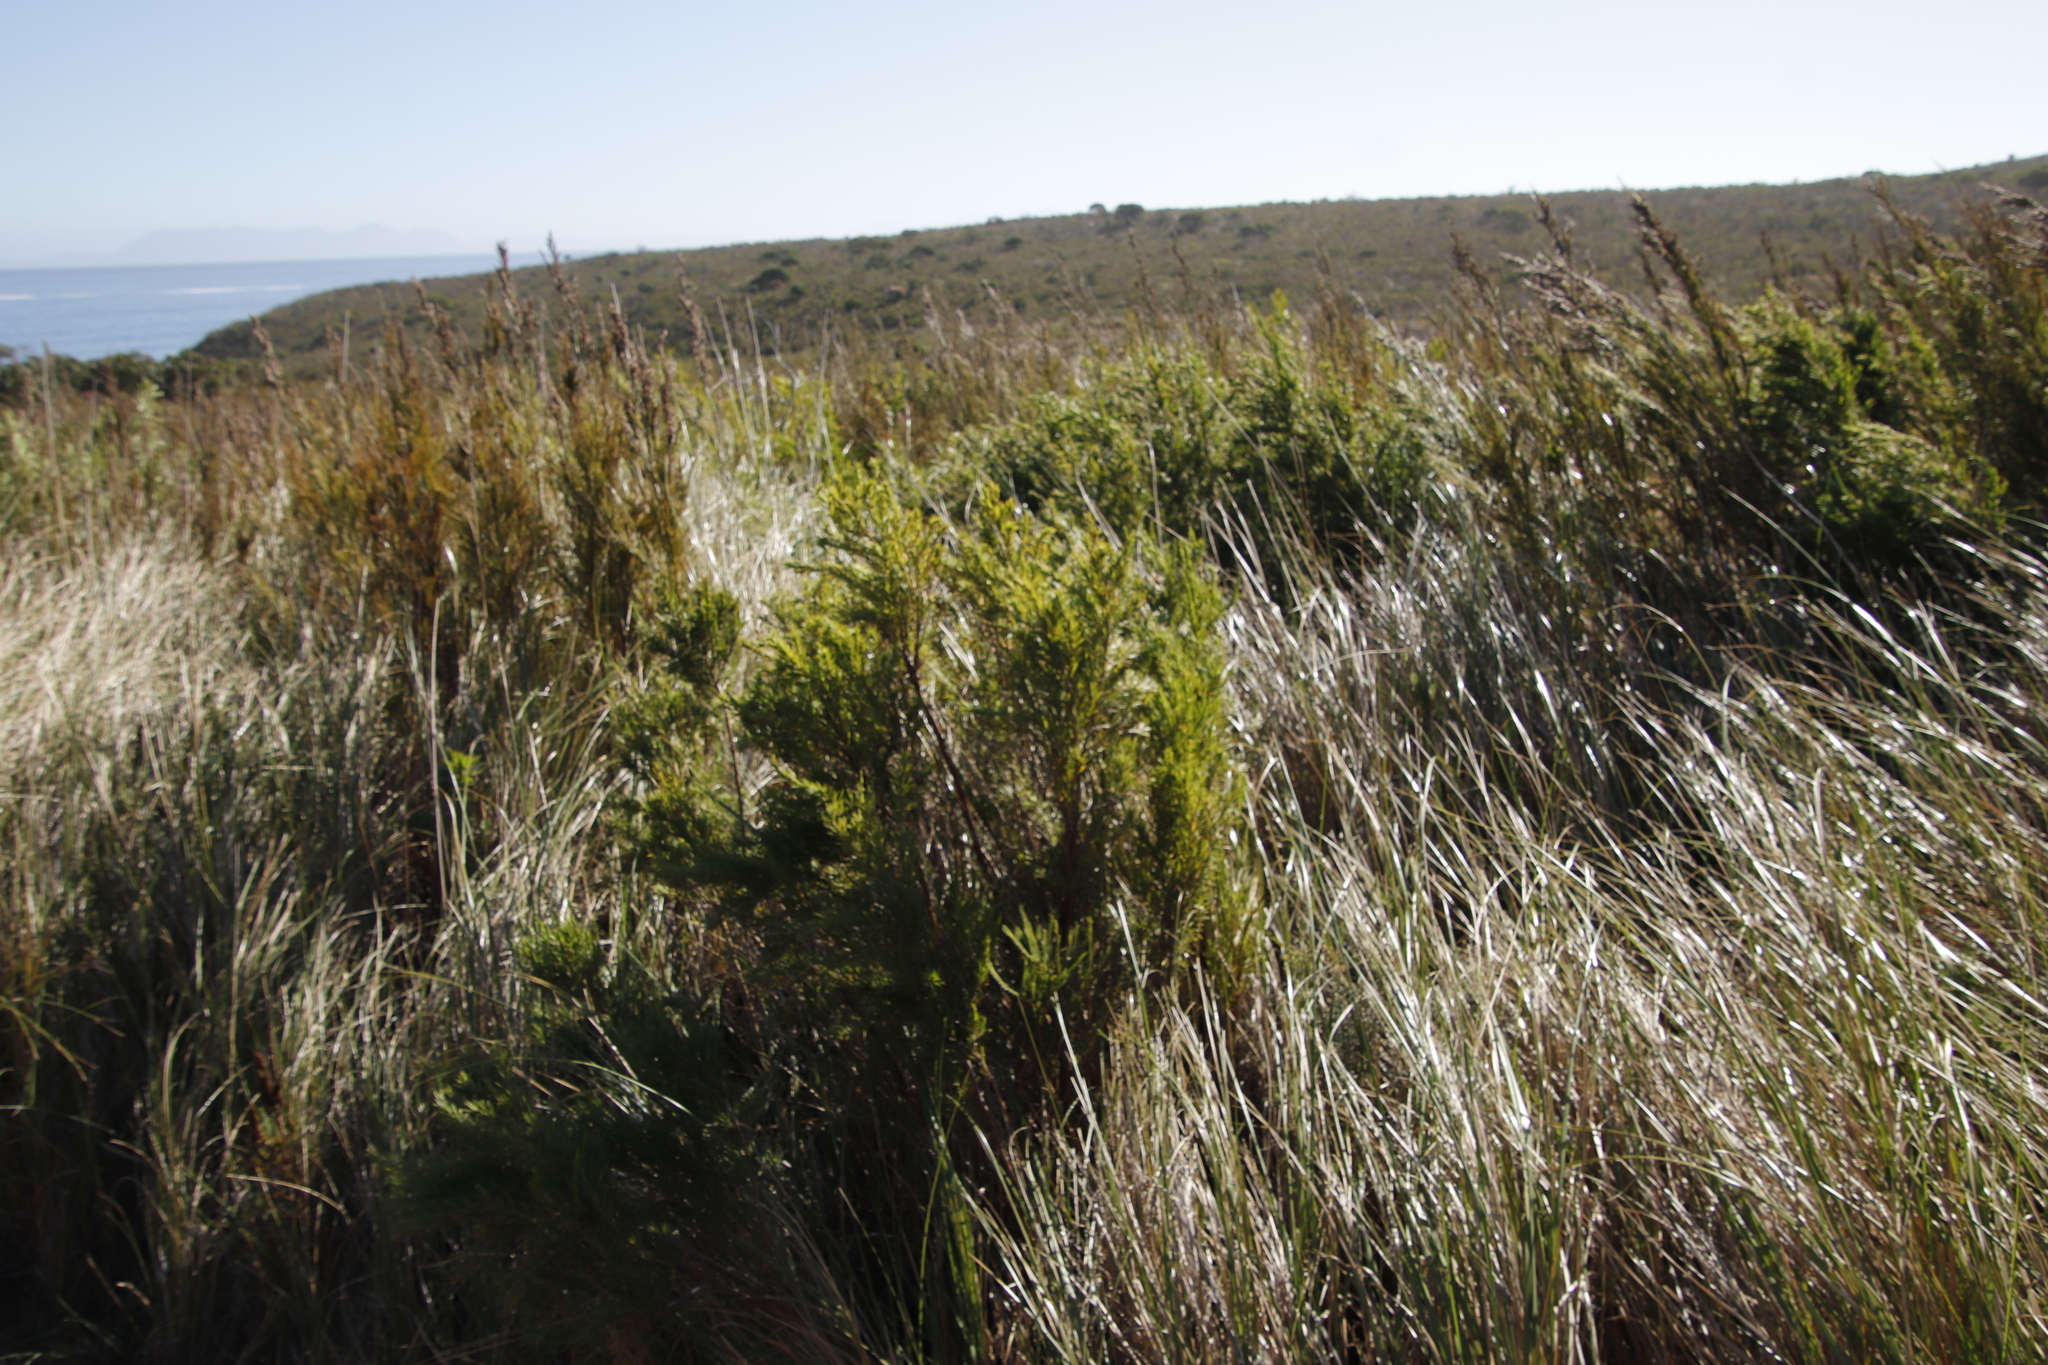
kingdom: Plantae
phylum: Tracheophyta
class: Magnoliopsida
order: Rosales
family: Rosaceae
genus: Cliffortia
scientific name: Cliffortia strobilifera
